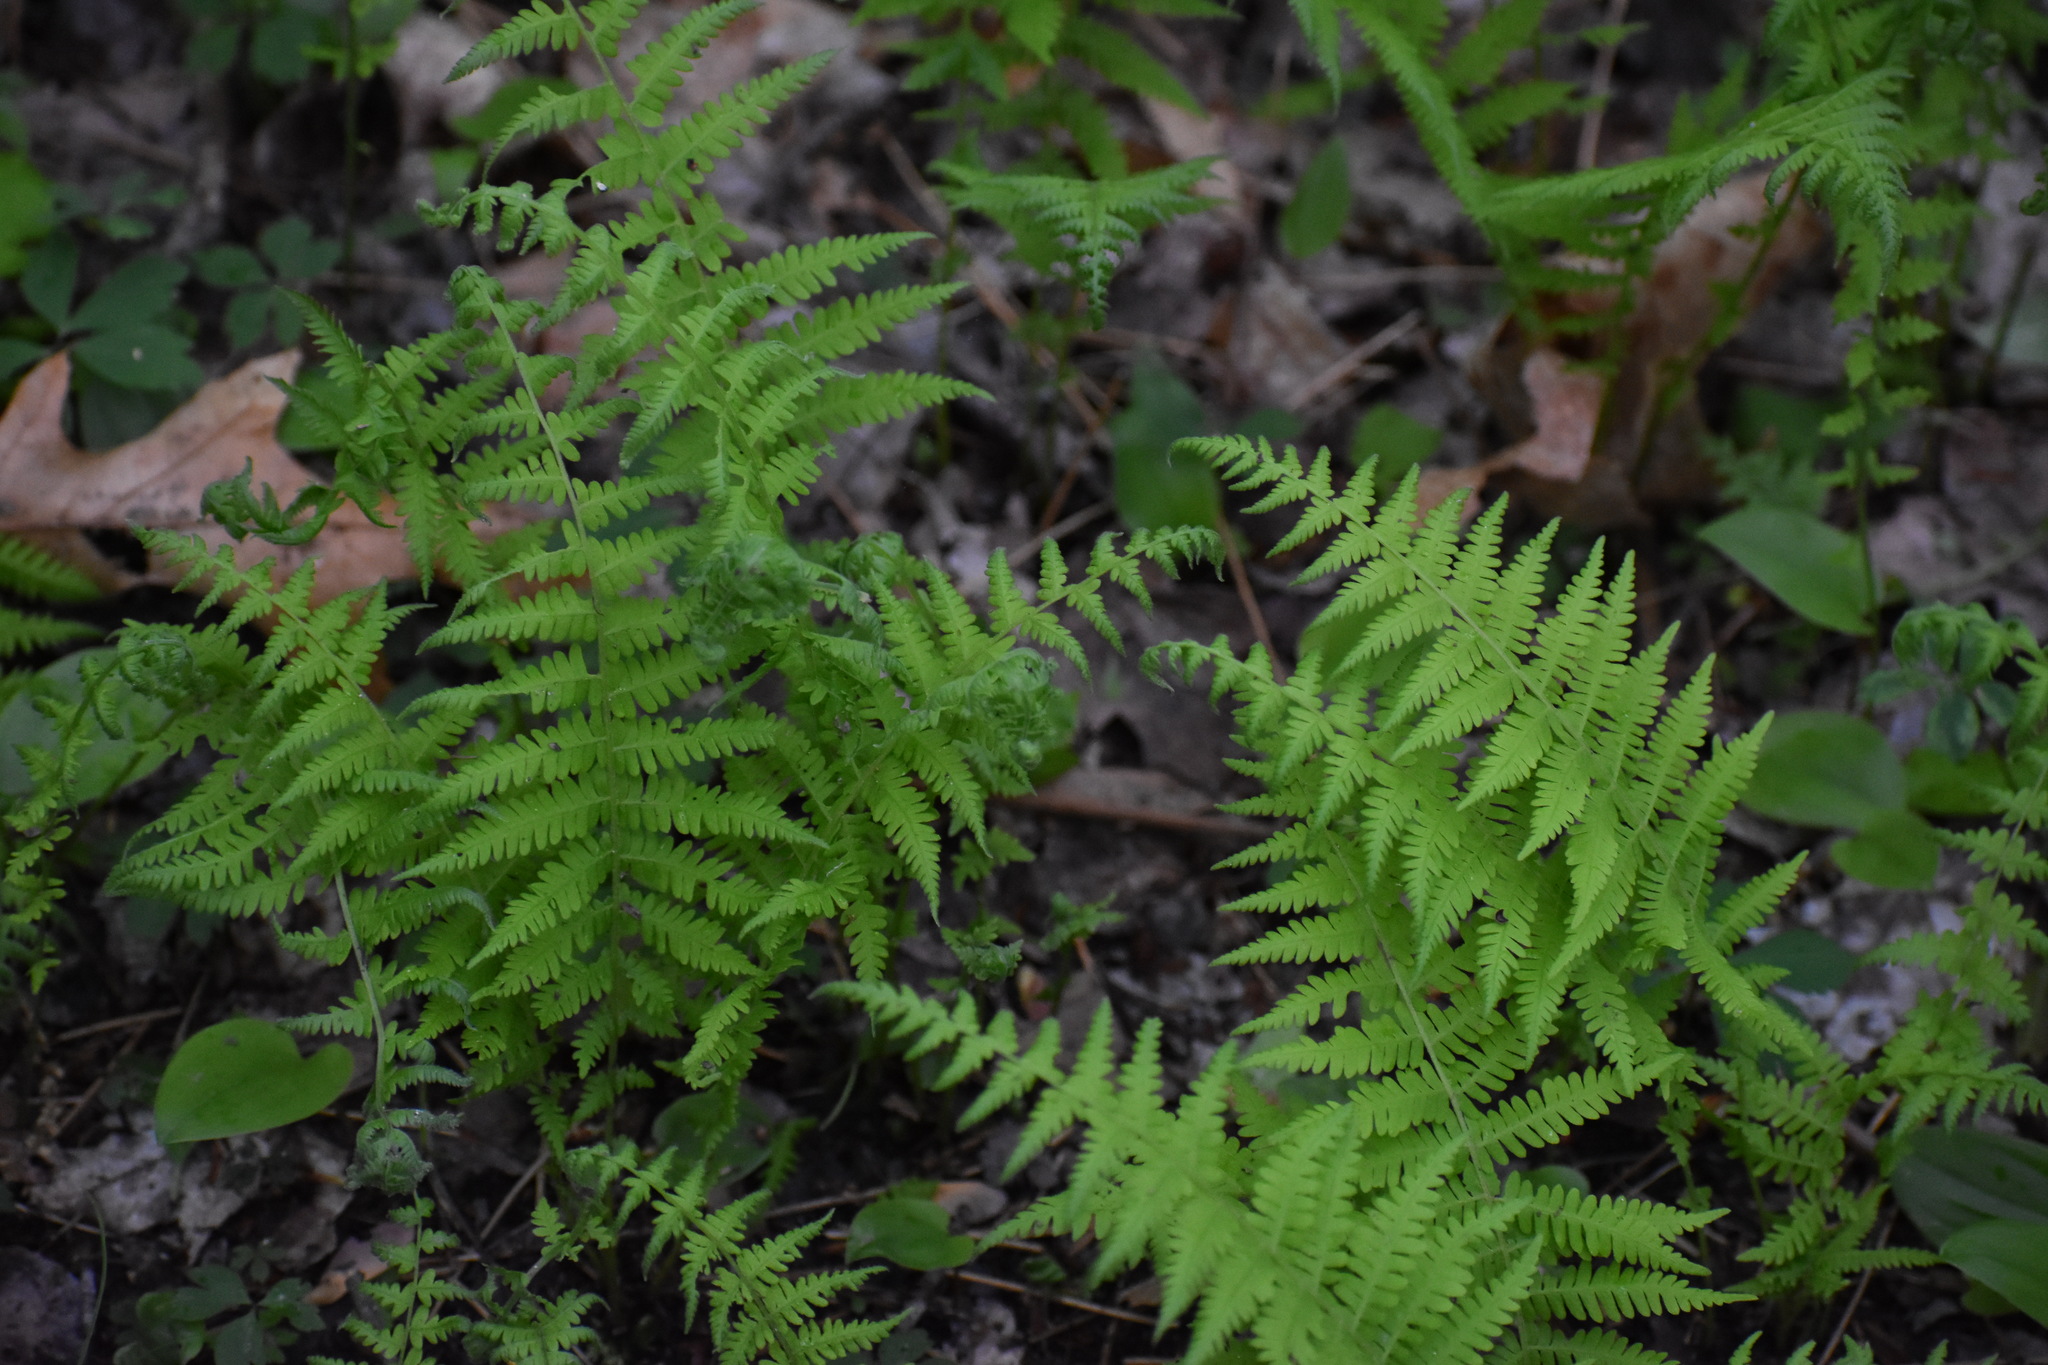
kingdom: Plantae
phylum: Tracheophyta
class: Polypodiopsida
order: Polypodiales
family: Thelypteridaceae
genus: Amauropelta
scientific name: Amauropelta noveboracensis
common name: New york fern
